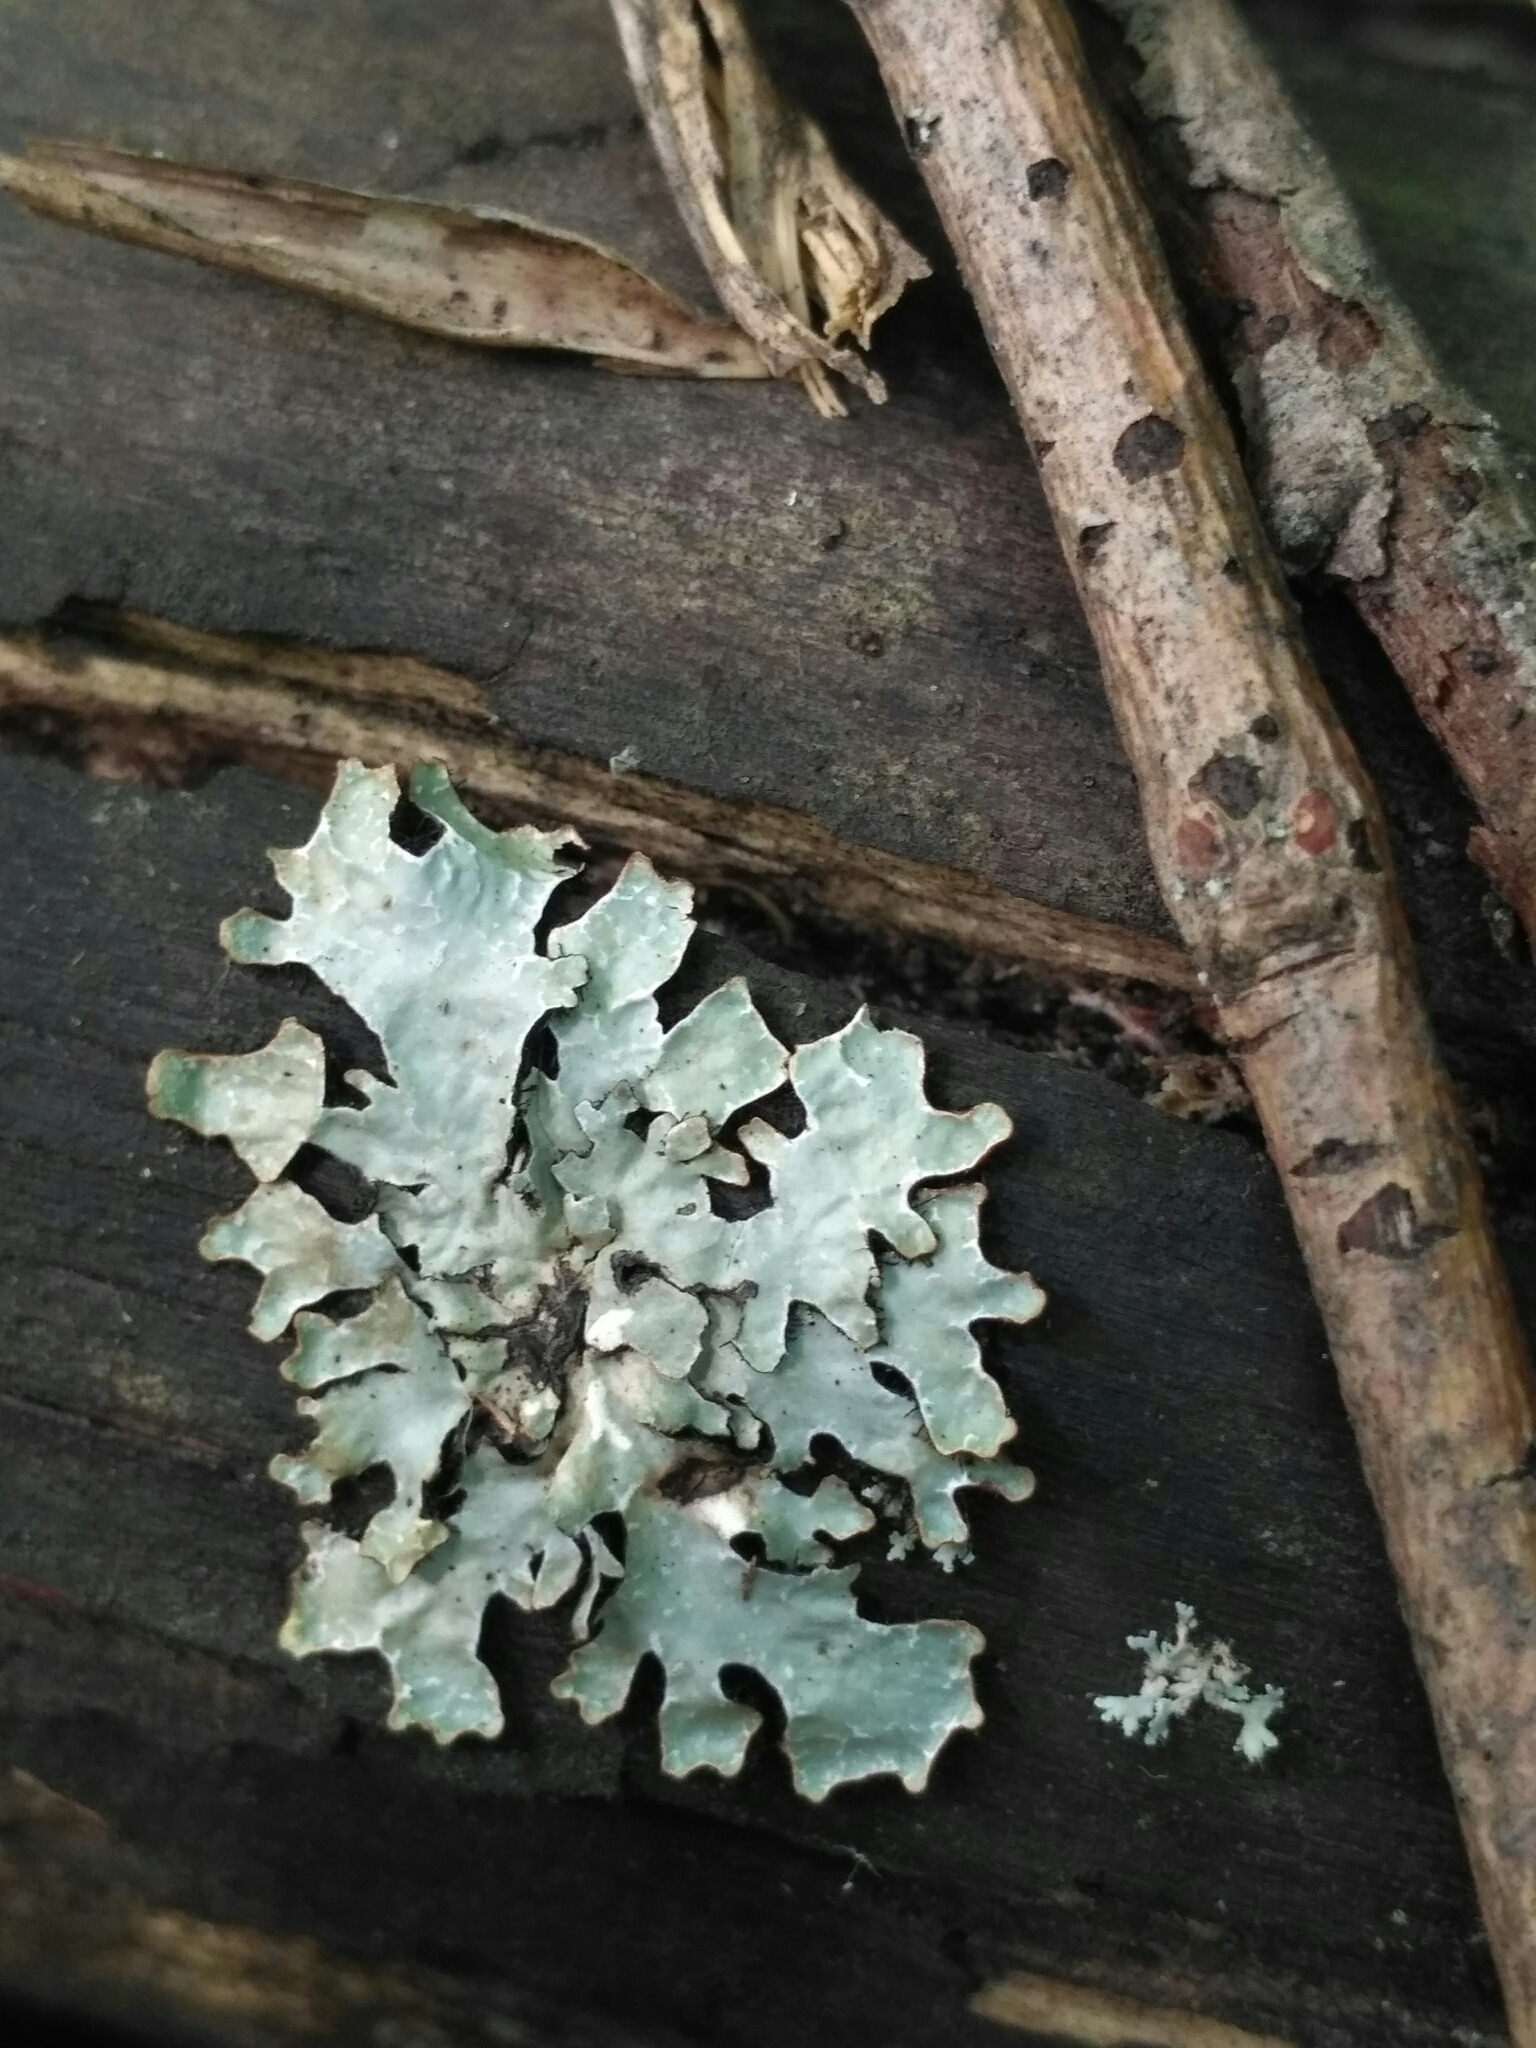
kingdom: Fungi
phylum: Ascomycota
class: Lecanoromycetes
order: Lecanorales
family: Parmeliaceae
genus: Parmelia
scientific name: Parmelia sulcata
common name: Netted shield lichen
